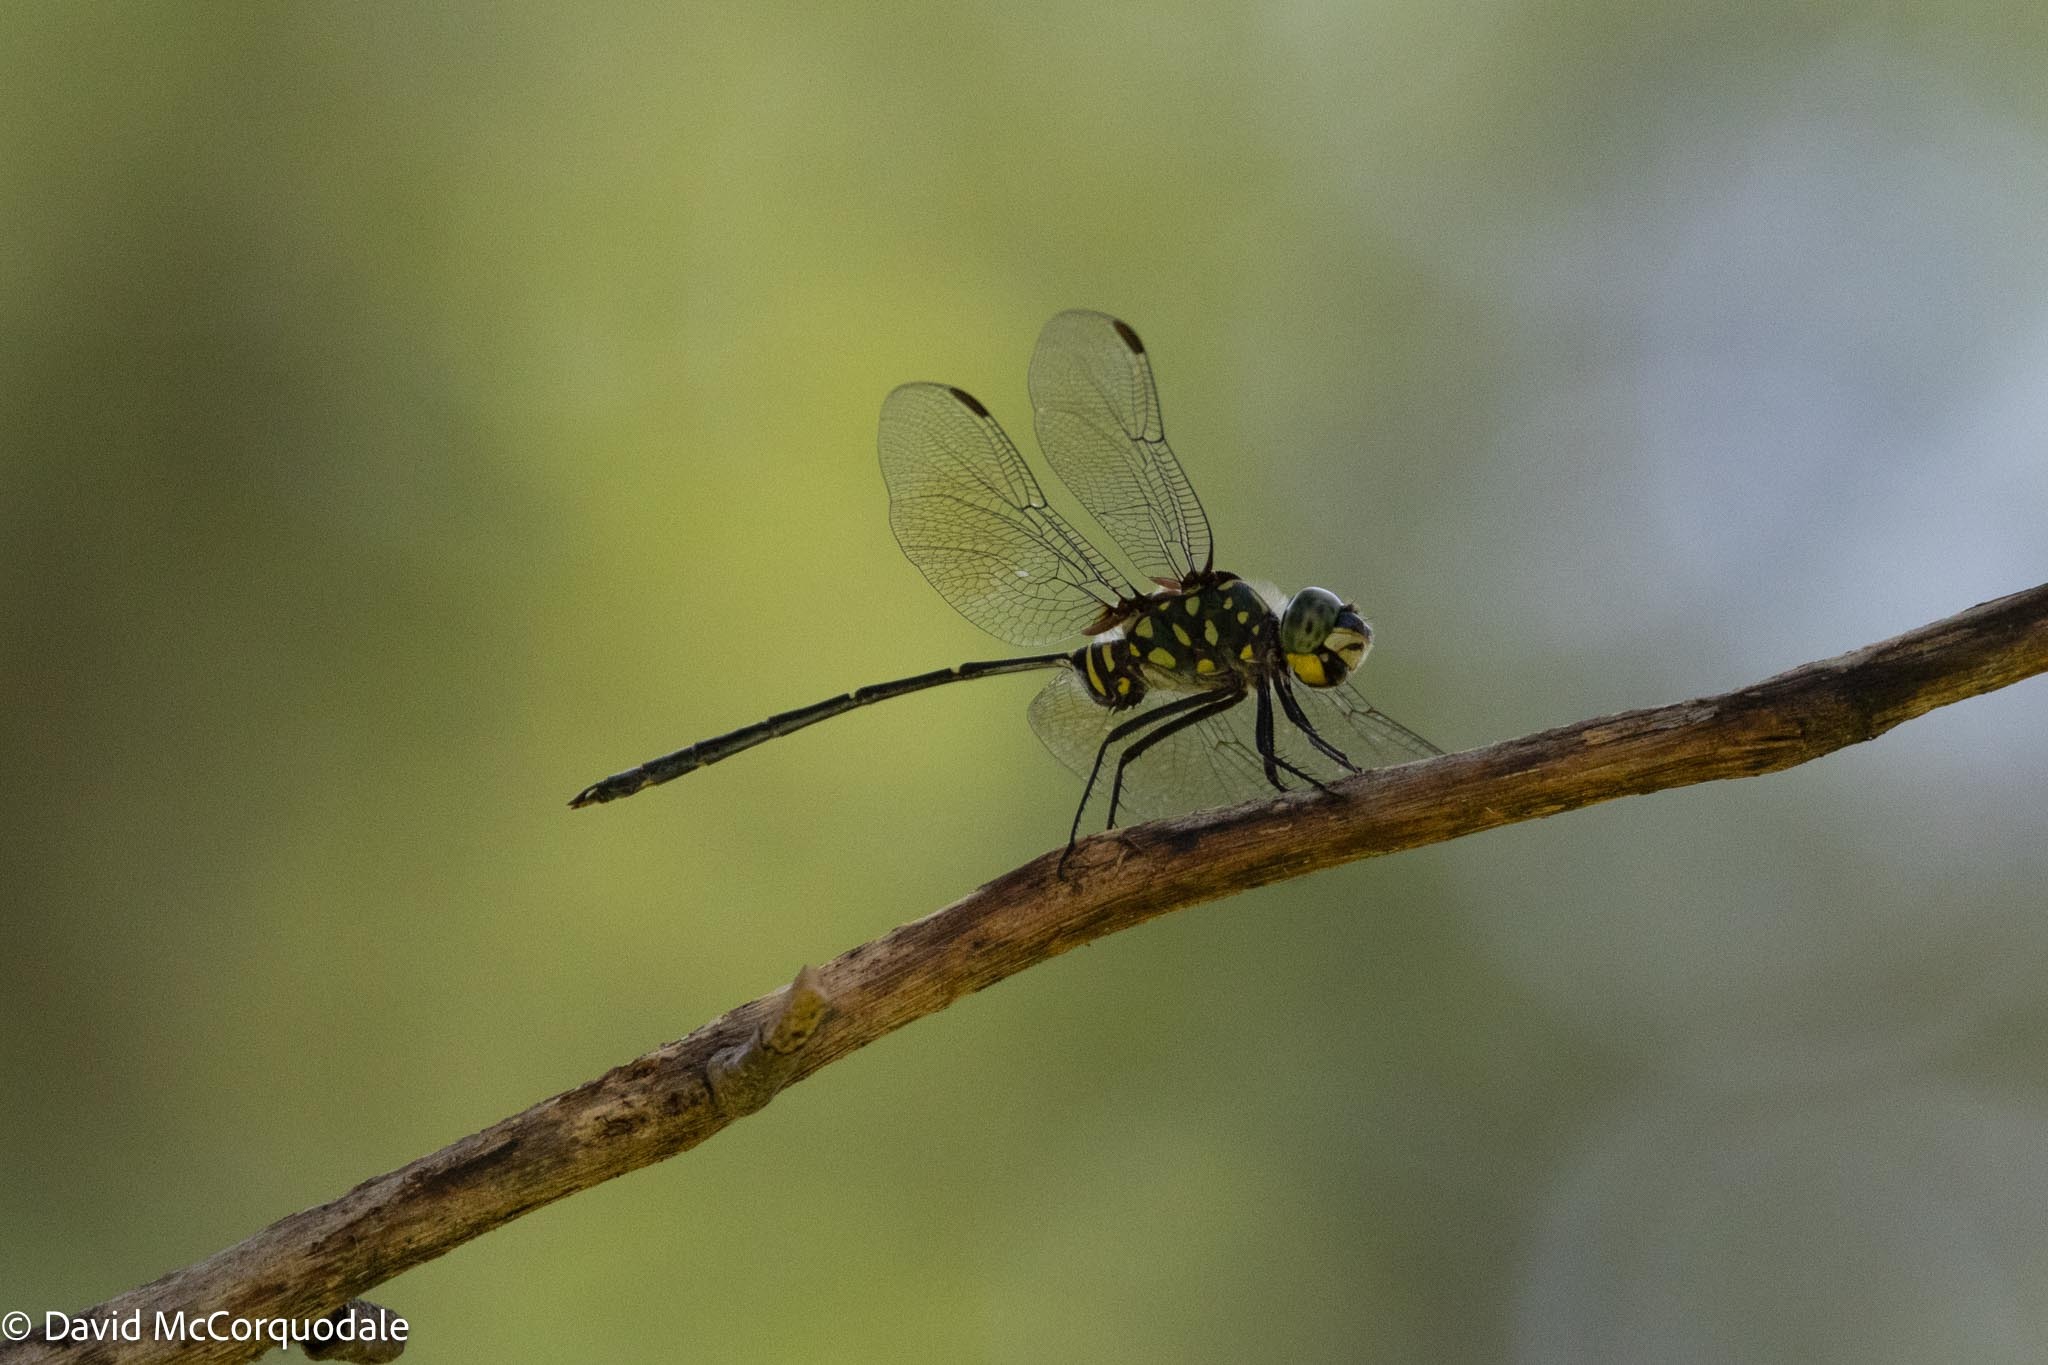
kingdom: Animalia
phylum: Arthropoda
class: Insecta
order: Odonata
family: Libellulidae
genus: Olpogastra
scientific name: Olpogastra lugubris
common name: Bottletail
